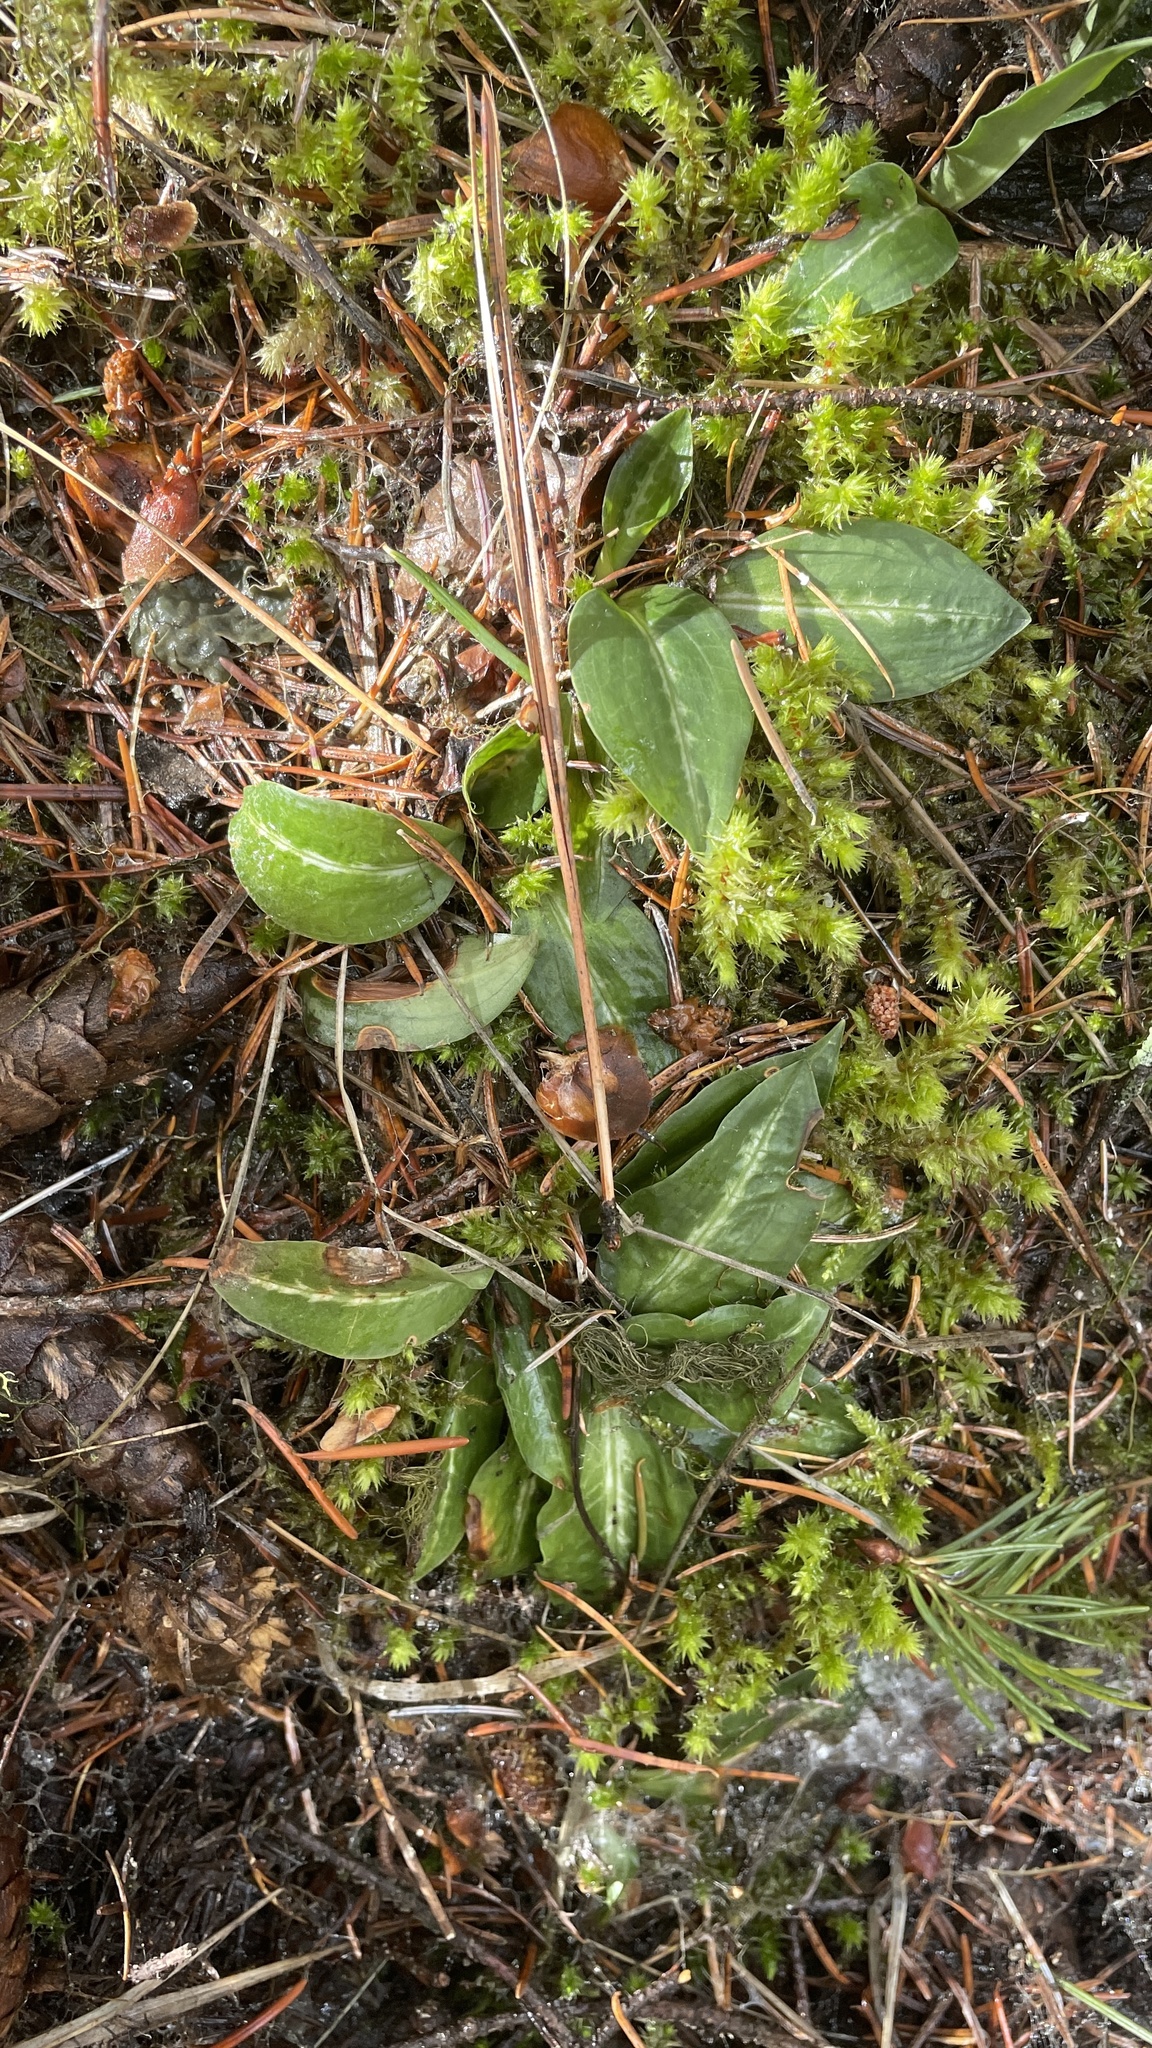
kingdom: Plantae
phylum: Tracheophyta
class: Liliopsida
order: Asparagales
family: Orchidaceae
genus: Goodyera
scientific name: Goodyera oblongifolia
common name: Giant rattlesnake-plantain
